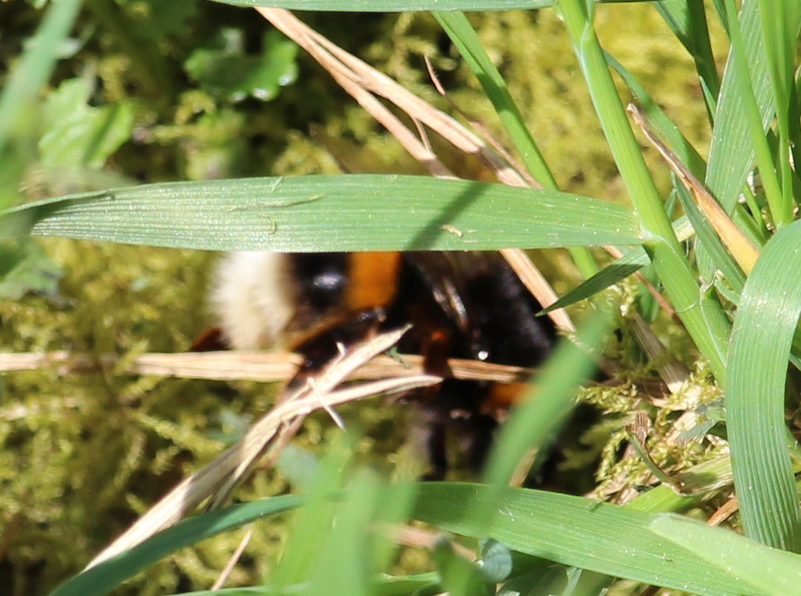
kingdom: Animalia
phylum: Arthropoda
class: Insecta
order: Hymenoptera
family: Apidae
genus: Bombus
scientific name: Bombus terrestris
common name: Buff-tailed bumblebee
